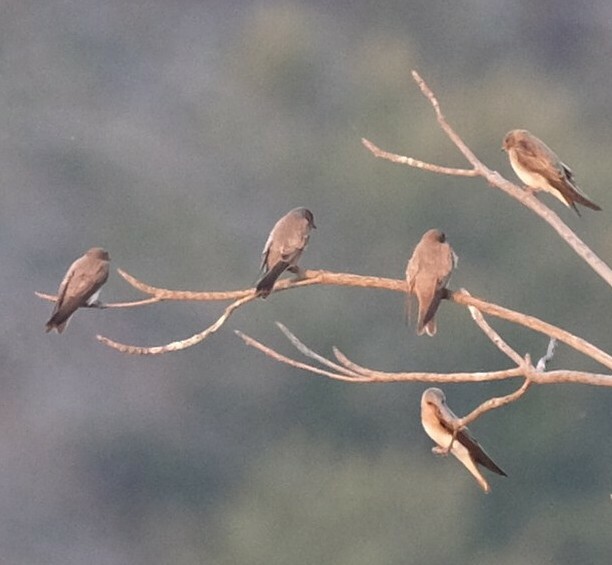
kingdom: Animalia
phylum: Chordata
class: Aves
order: Passeriformes
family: Hirundinidae
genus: Riparia
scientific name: Riparia paludicola
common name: Brown-throated martin
